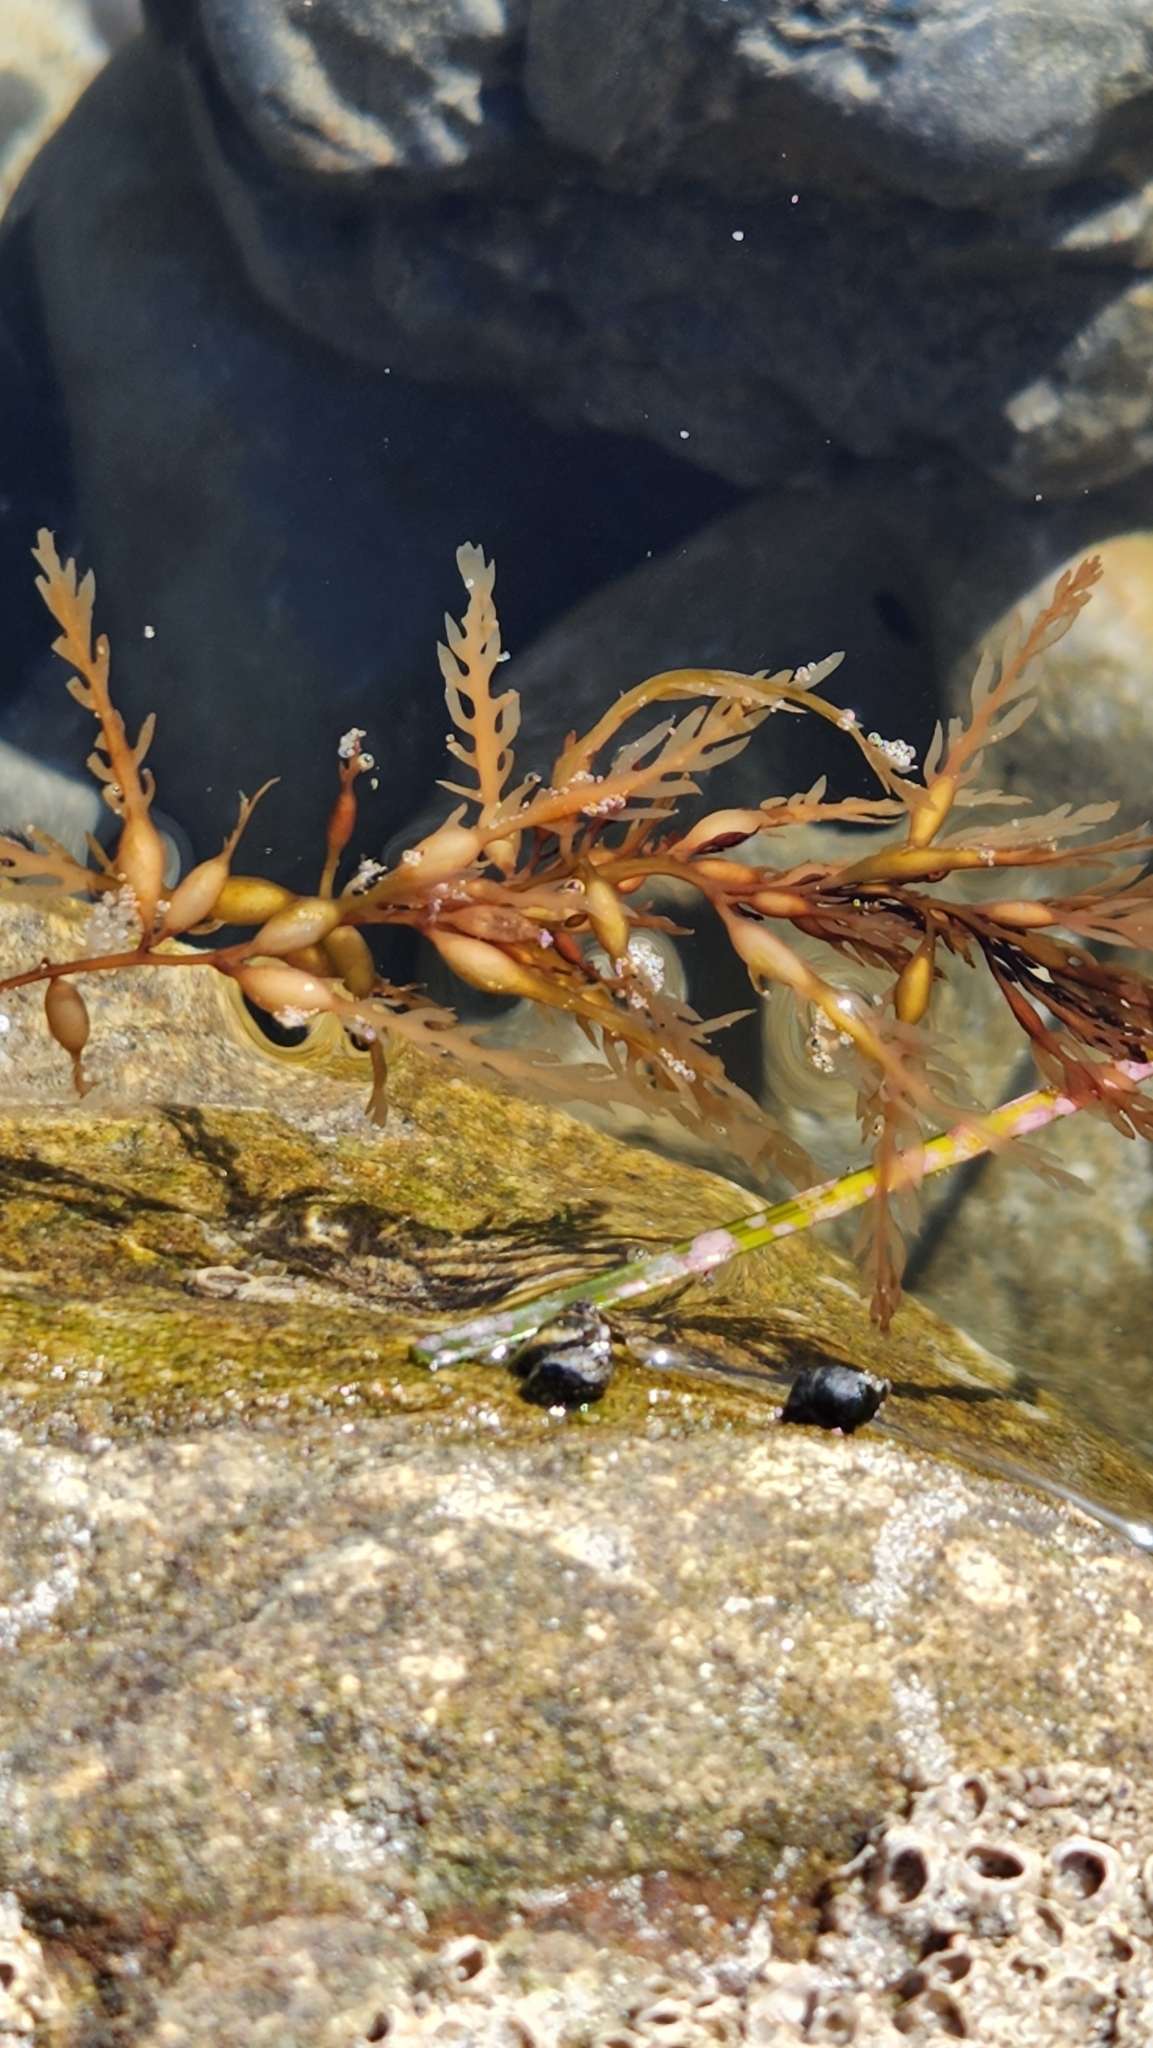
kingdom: Chromista
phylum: Ochrophyta
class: Phaeophyceae
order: Fucales
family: Sargassaceae
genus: Sargassum
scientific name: Sargassum horneri
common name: Devil weed
